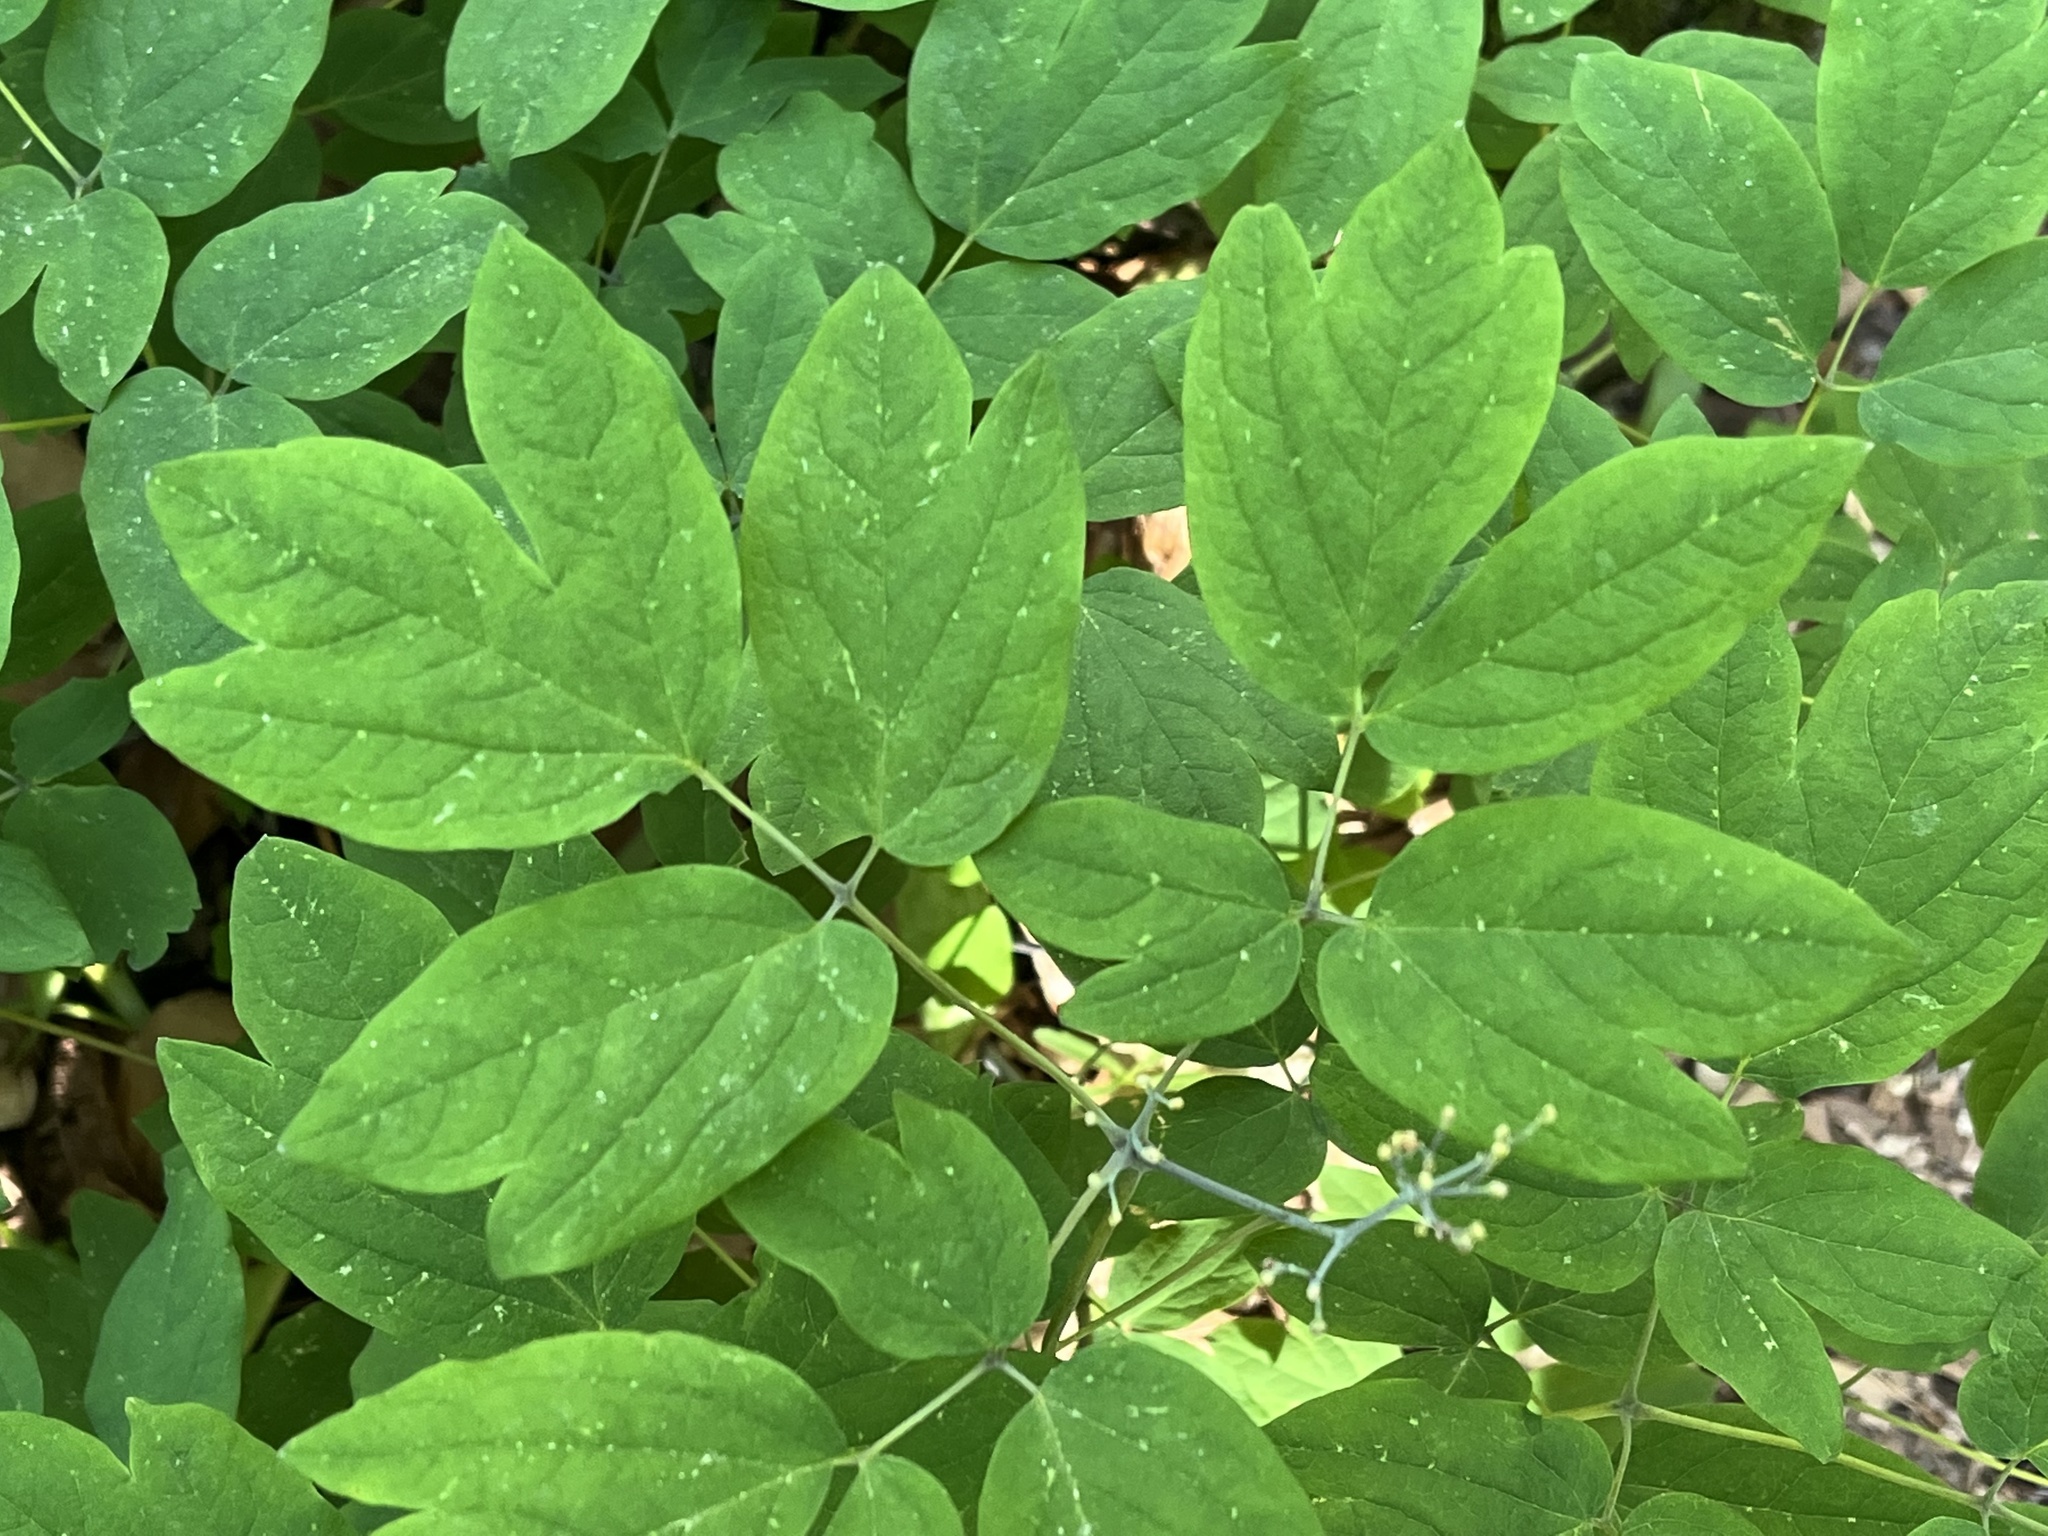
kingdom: Plantae
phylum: Tracheophyta
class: Magnoliopsida
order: Ranunculales
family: Berberidaceae
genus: Caulophyllum
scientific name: Caulophyllum thalictroides
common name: Blue cohosh
